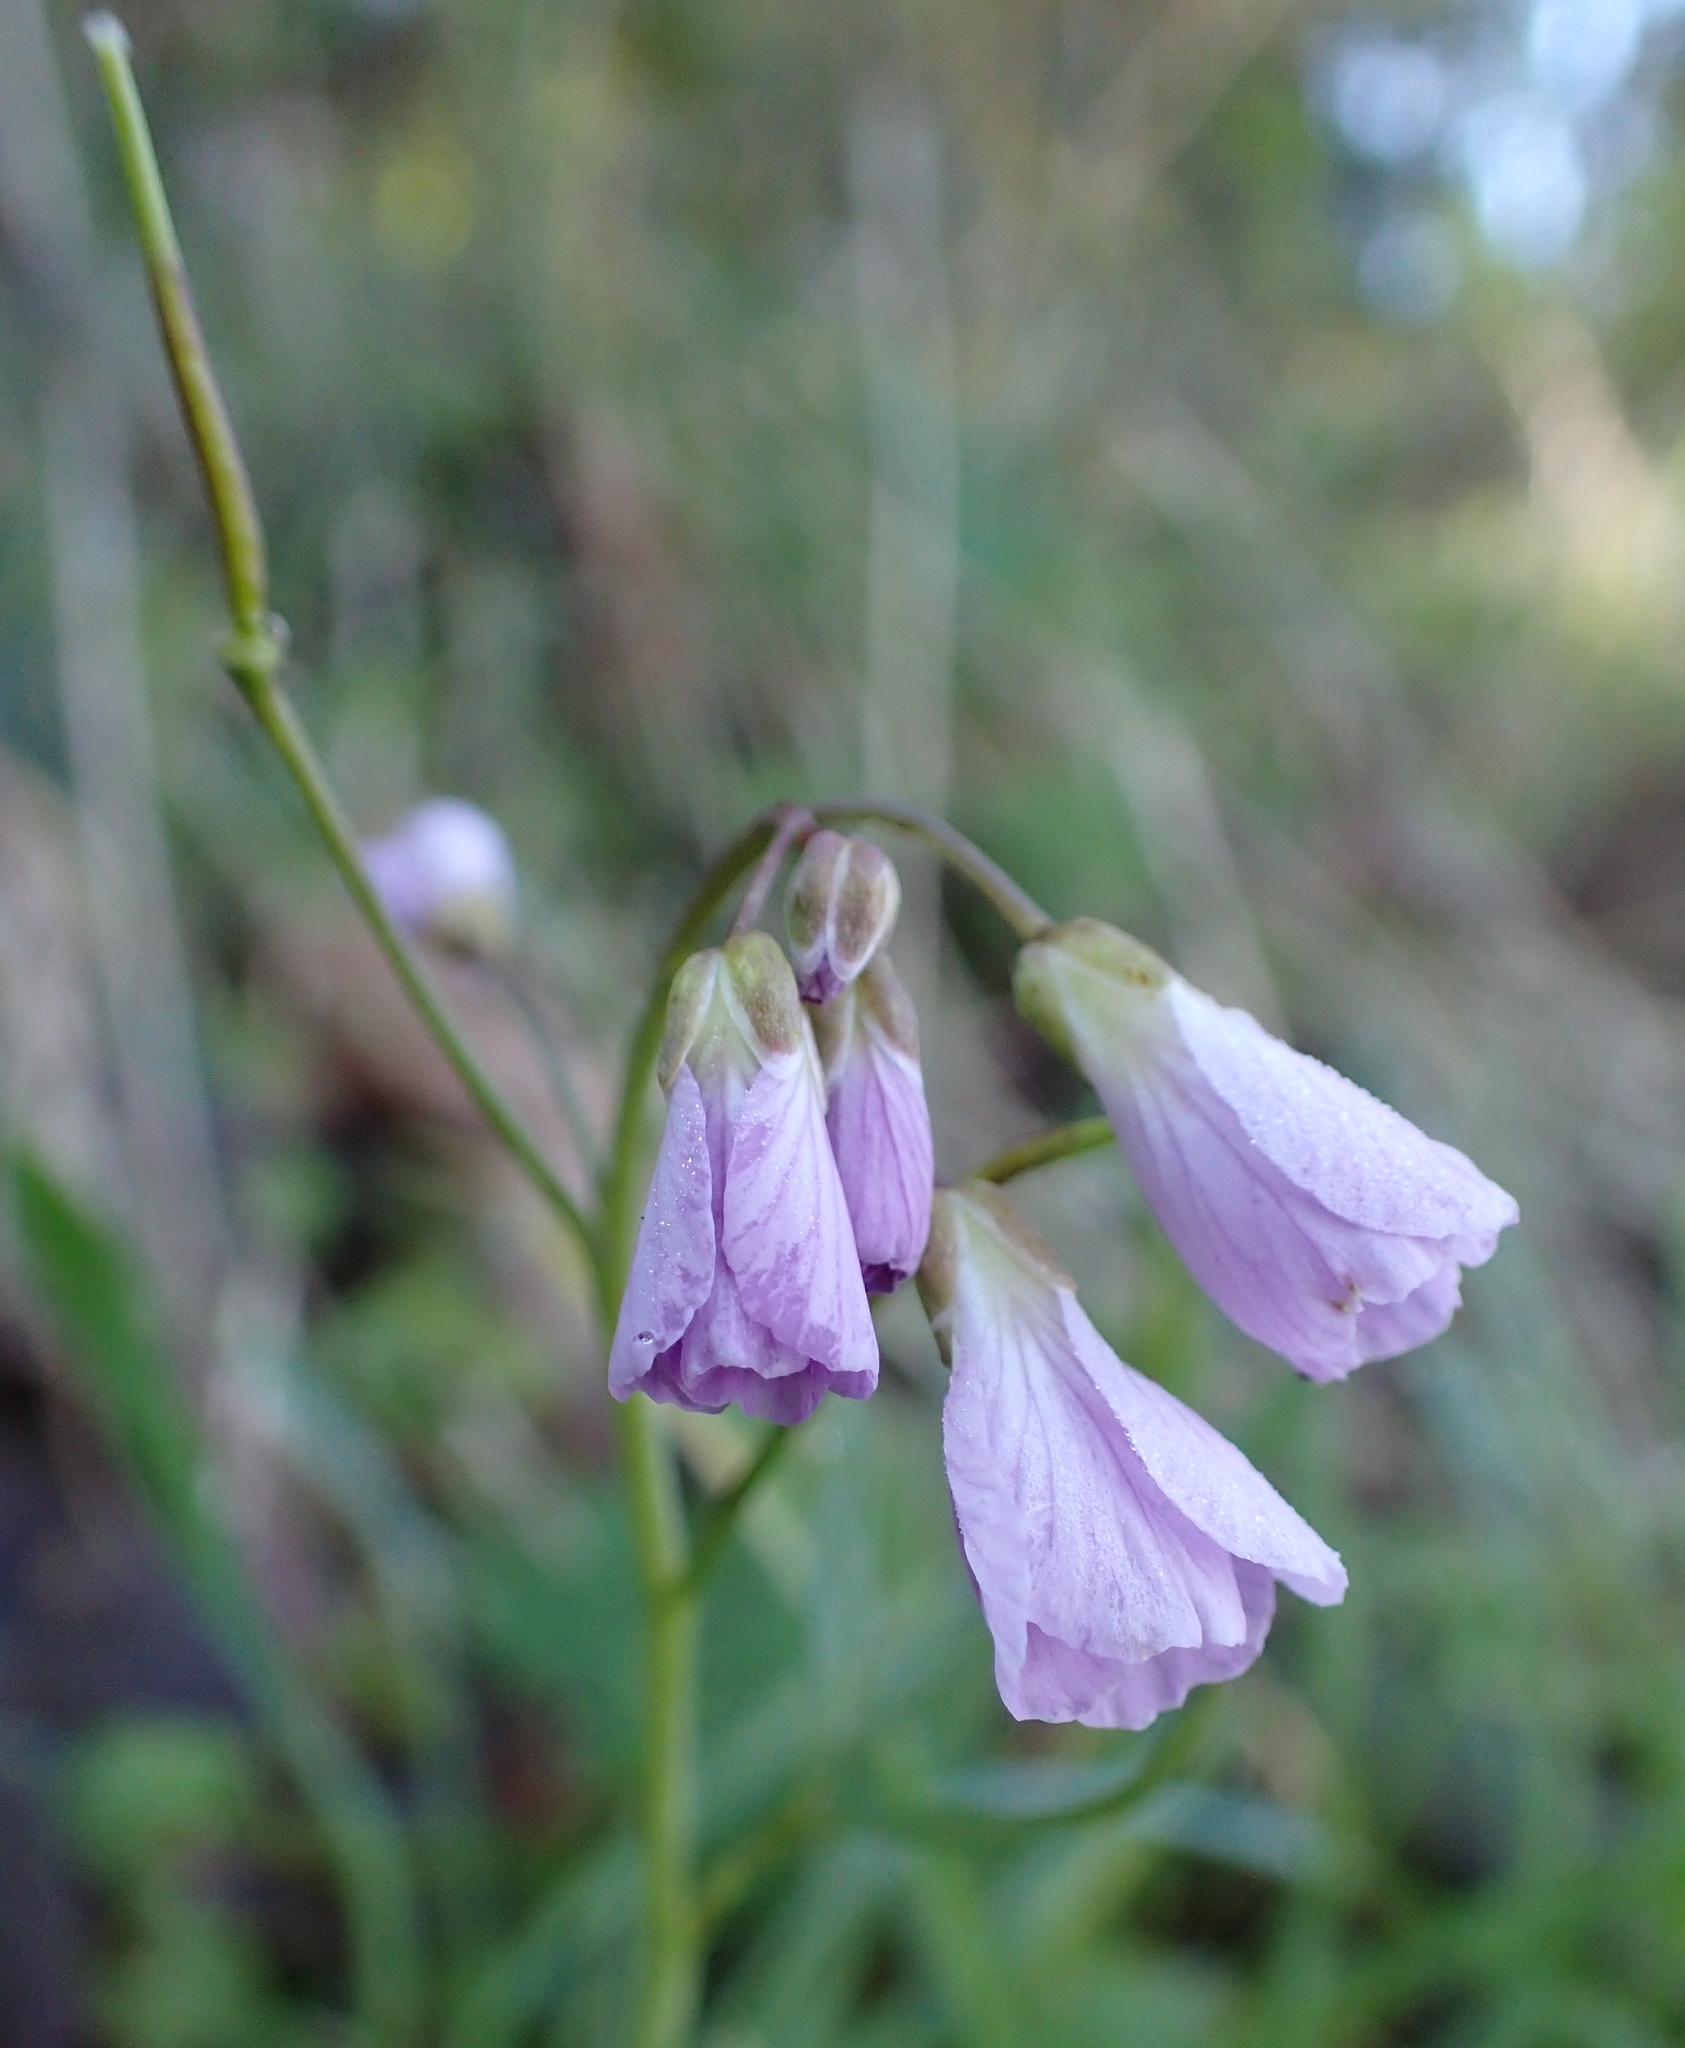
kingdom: Plantae
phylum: Tracheophyta
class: Magnoliopsida
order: Brassicales
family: Brassicaceae
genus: Cardamine
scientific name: Cardamine nuttallii
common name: Nuttall's toothwort
